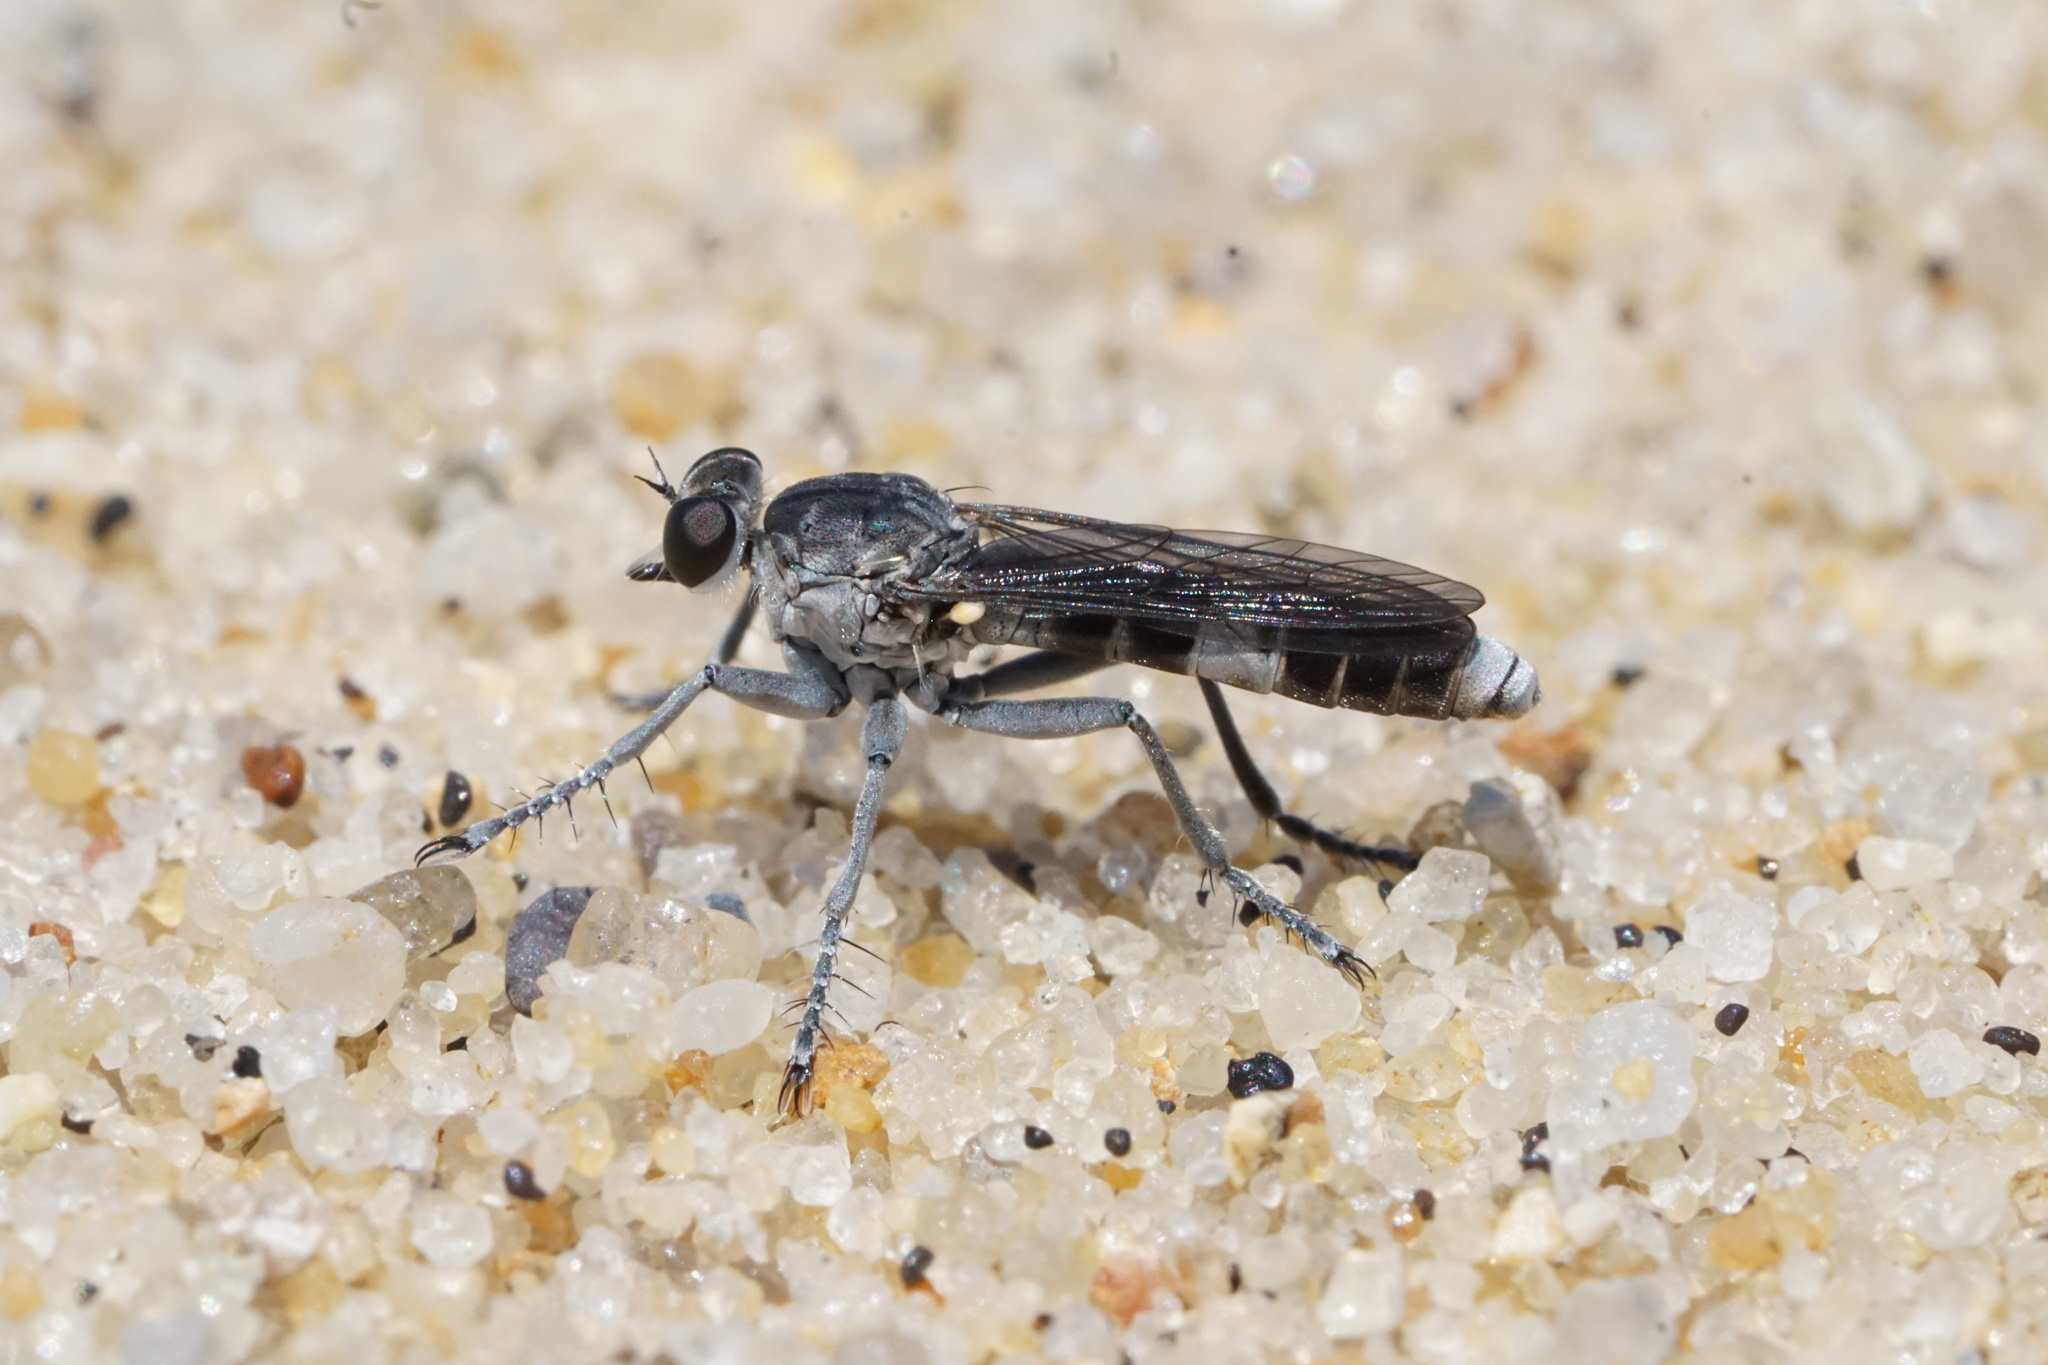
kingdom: Animalia
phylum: Arthropoda
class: Insecta
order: Diptera
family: Asilidae
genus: Stichopogon
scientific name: Stichopogon trifasciatus
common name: Three-banded robber fly
